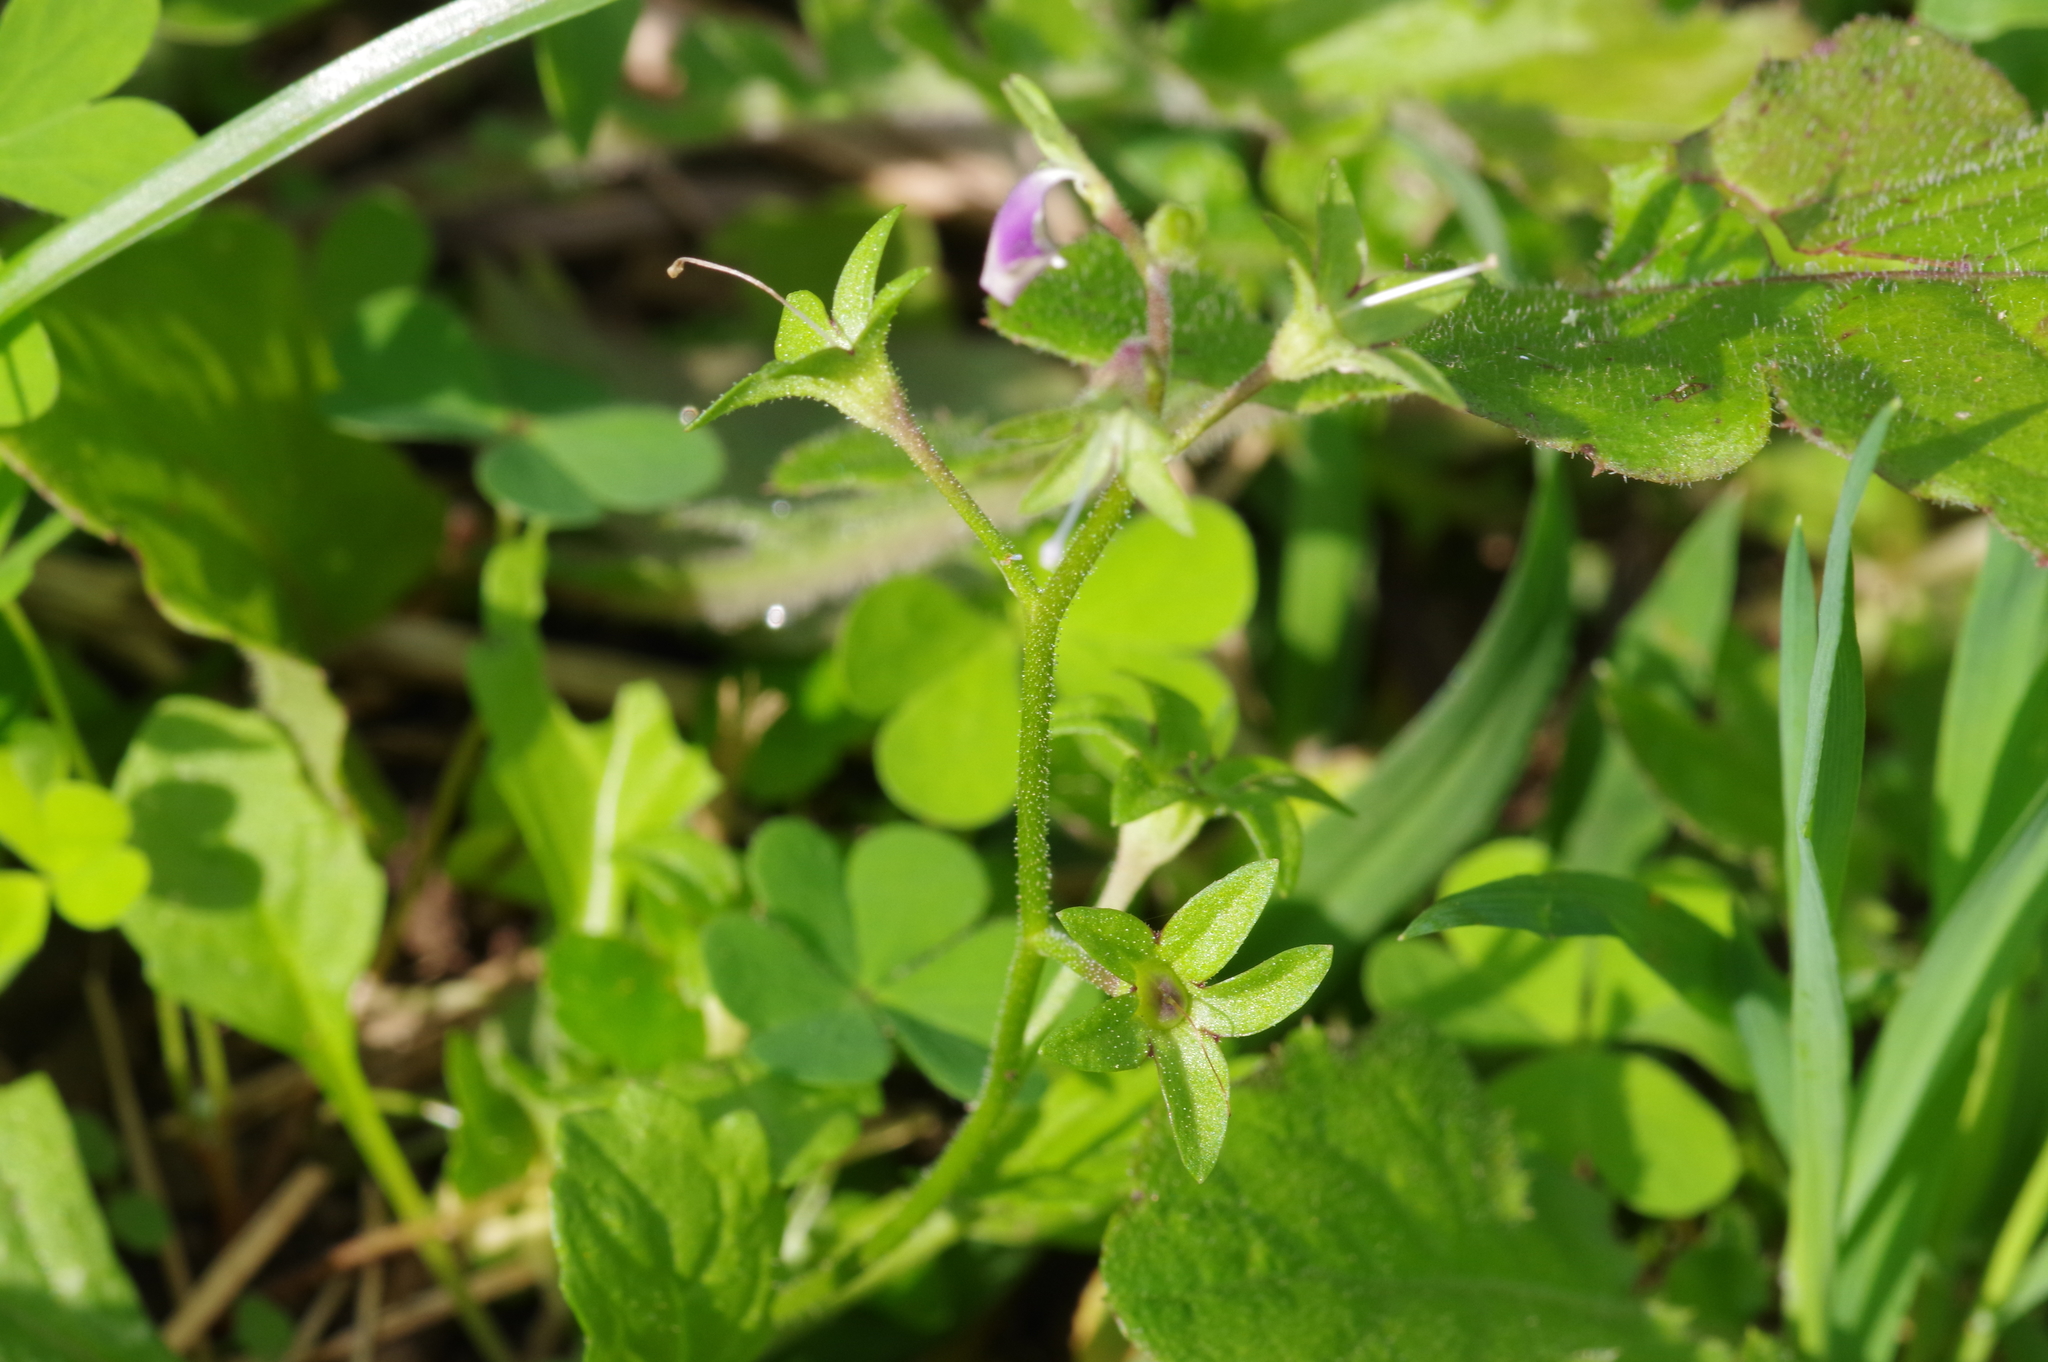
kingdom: Plantae
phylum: Tracheophyta
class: Magnoliopsida
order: Lamiales
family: Mazaceae
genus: Mazus
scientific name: Mazus pumilus
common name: Japanese mazus
